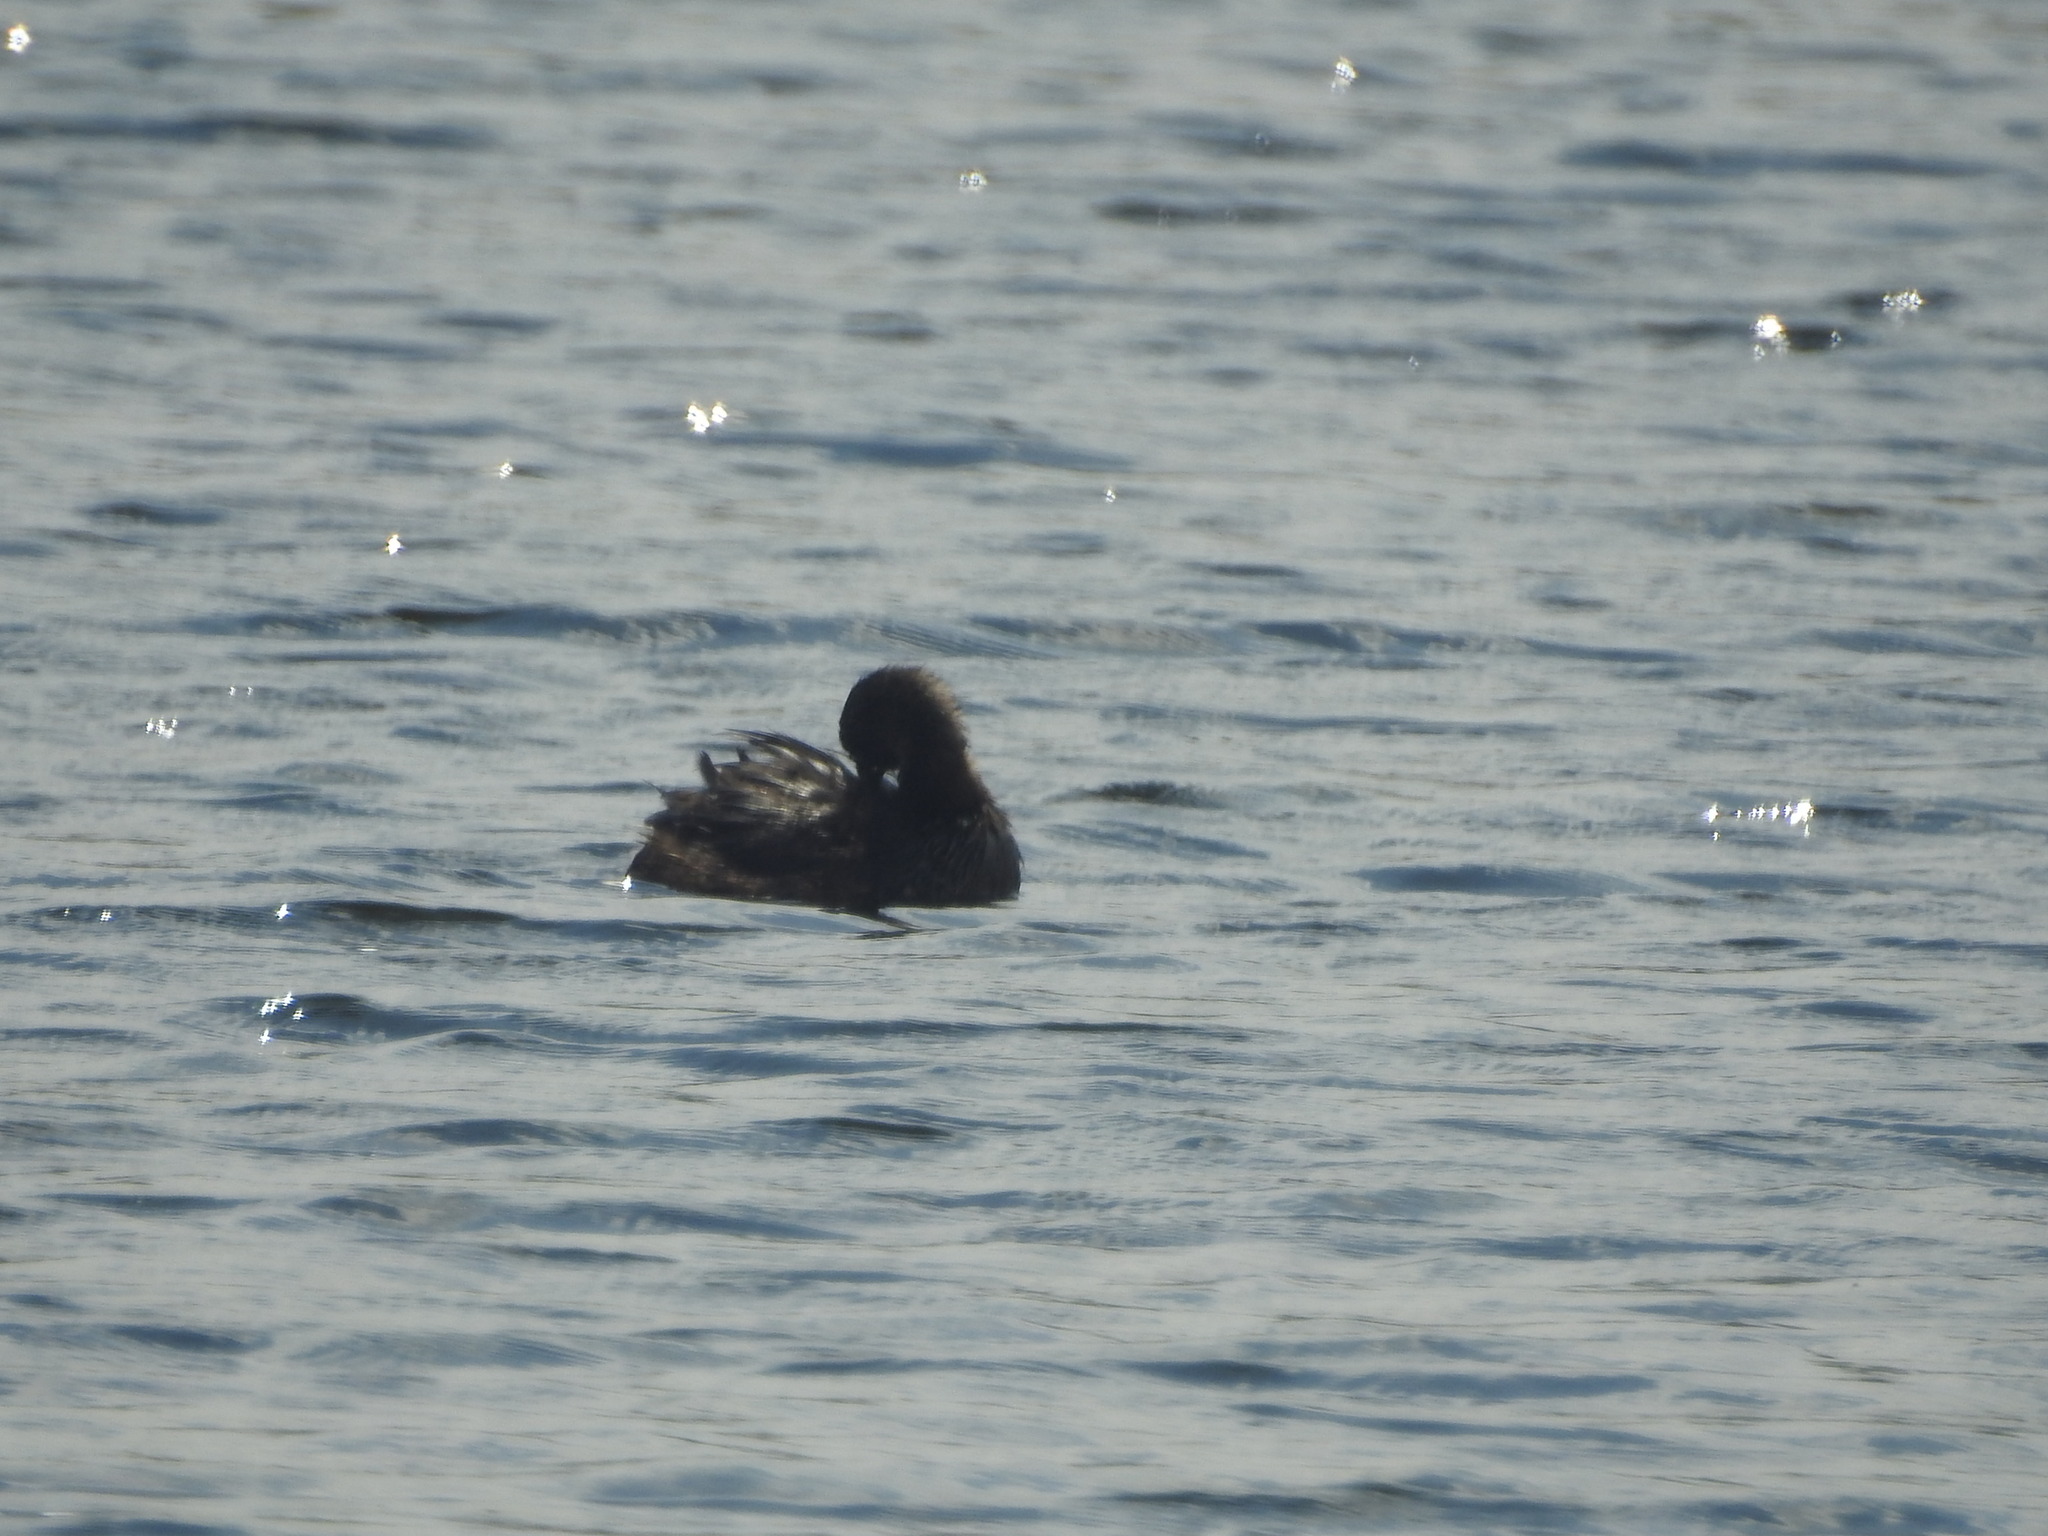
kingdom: Animalia
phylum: Chordata
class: Aves
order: Podicipediformes
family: Podicipedidae
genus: Podilymbus
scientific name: Podilymbus podiceps
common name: Pied-billed grebe
